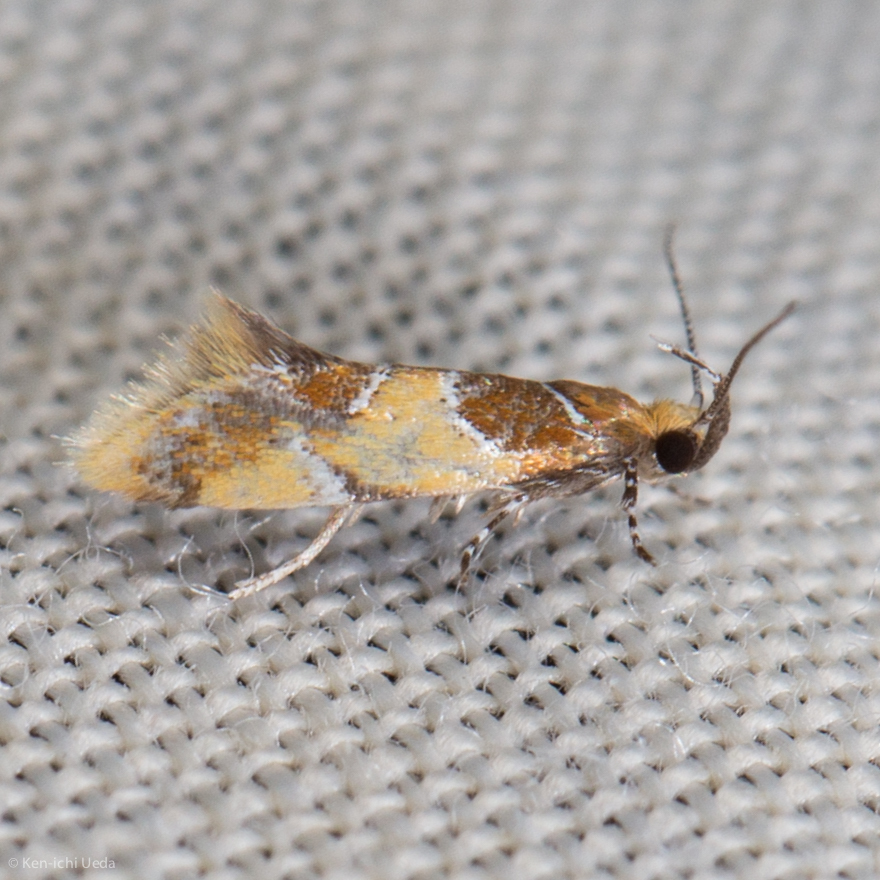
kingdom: Animalia
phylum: Arthropoda
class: Insecta
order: Lepidoptera
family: Oecophoridae
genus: Callima
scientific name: Callima argenticinctella
